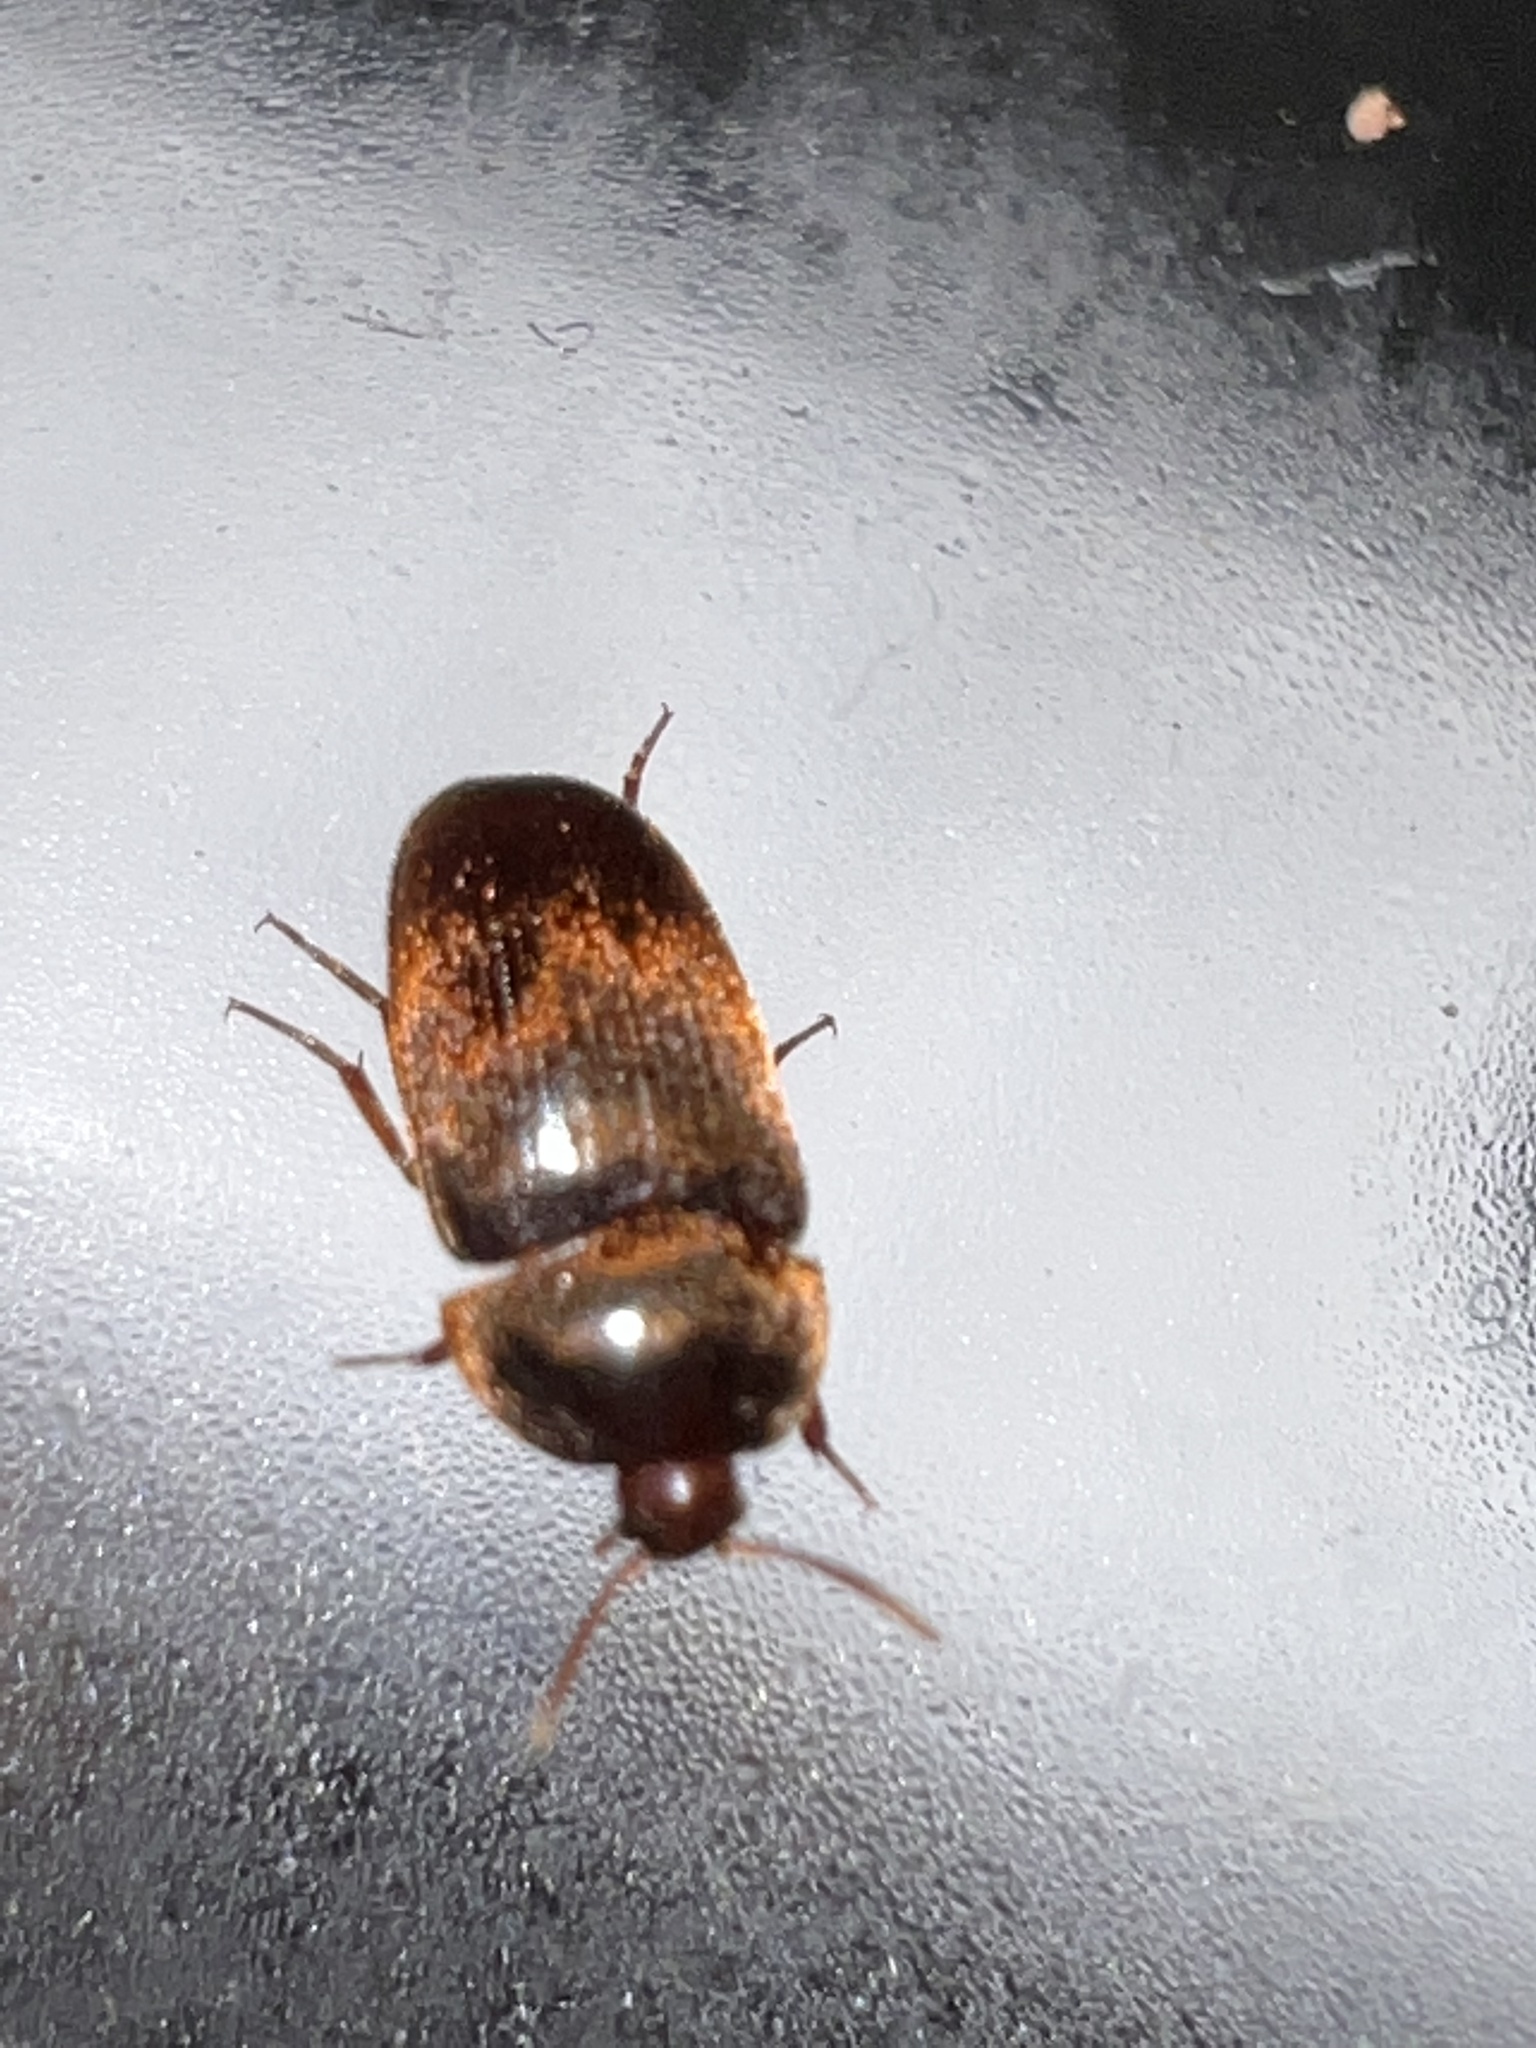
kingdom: Animalia
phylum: Arthropoda
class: Insecta
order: Coleoptera
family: Tetratomidae
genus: Eustrophus
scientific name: Eustrophus tomentosus
